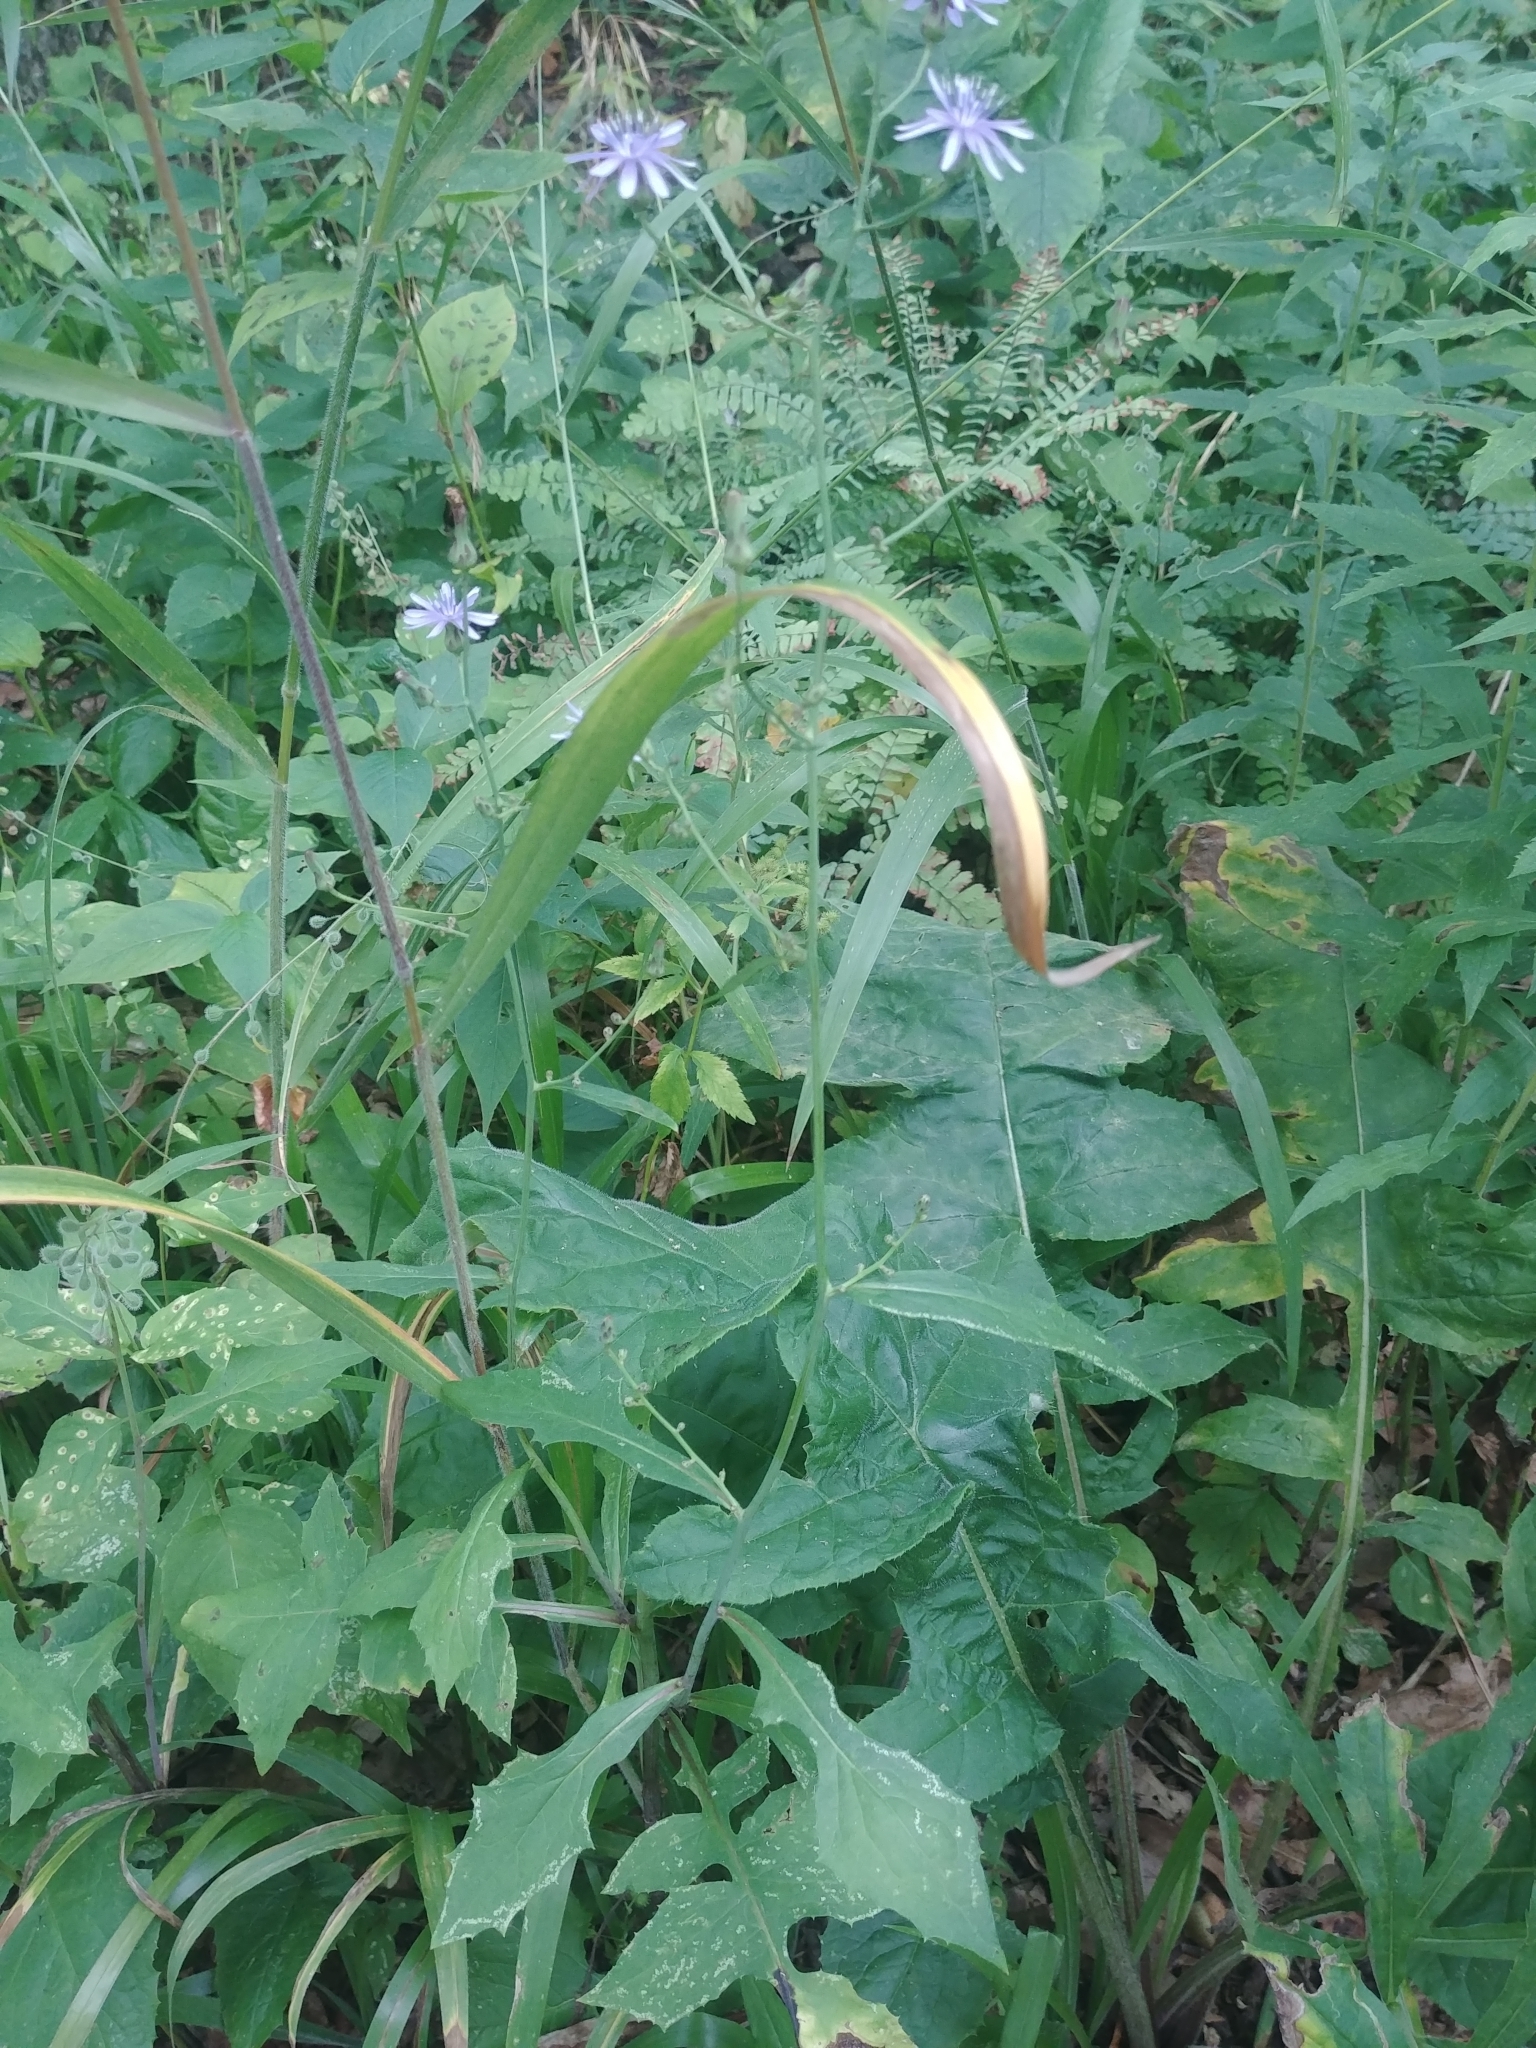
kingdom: Plantae
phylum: Tracheophyta
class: Magnoliopsida
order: Asterales
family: Asteraceae
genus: Lactuca
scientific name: Lactuca floridana
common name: Woodland lettuce
